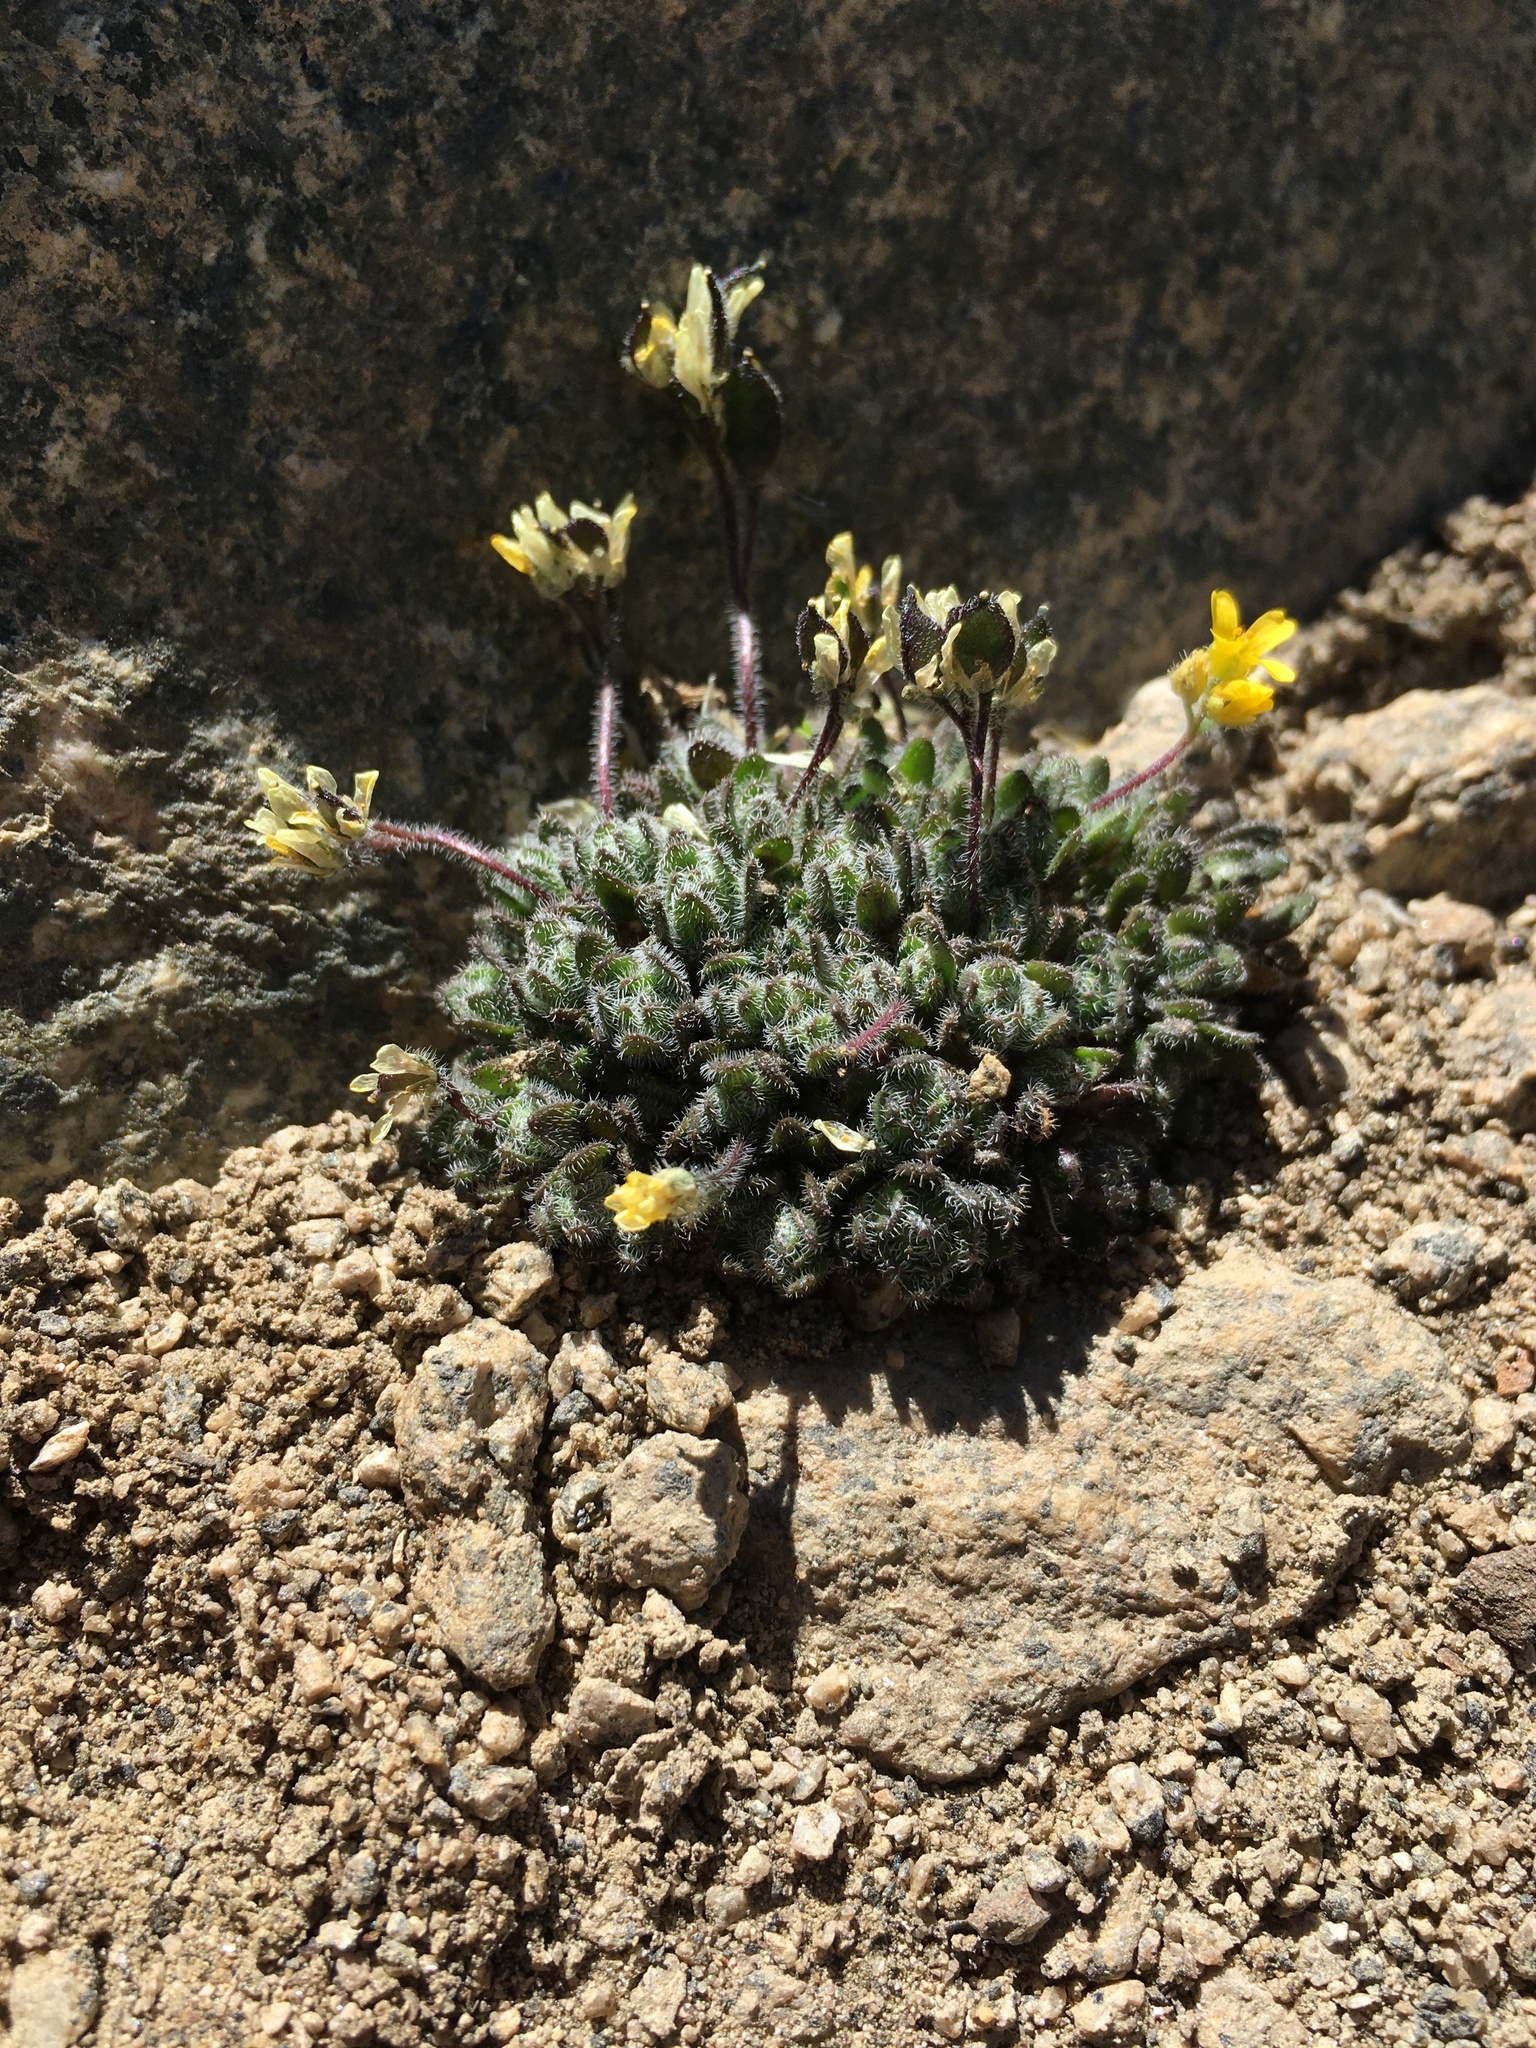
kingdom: Plantae
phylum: Tracheophyta
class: Magnoliopsida
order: Brassicales
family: Brassicaceae
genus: Draba
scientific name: Draba lemmonii
